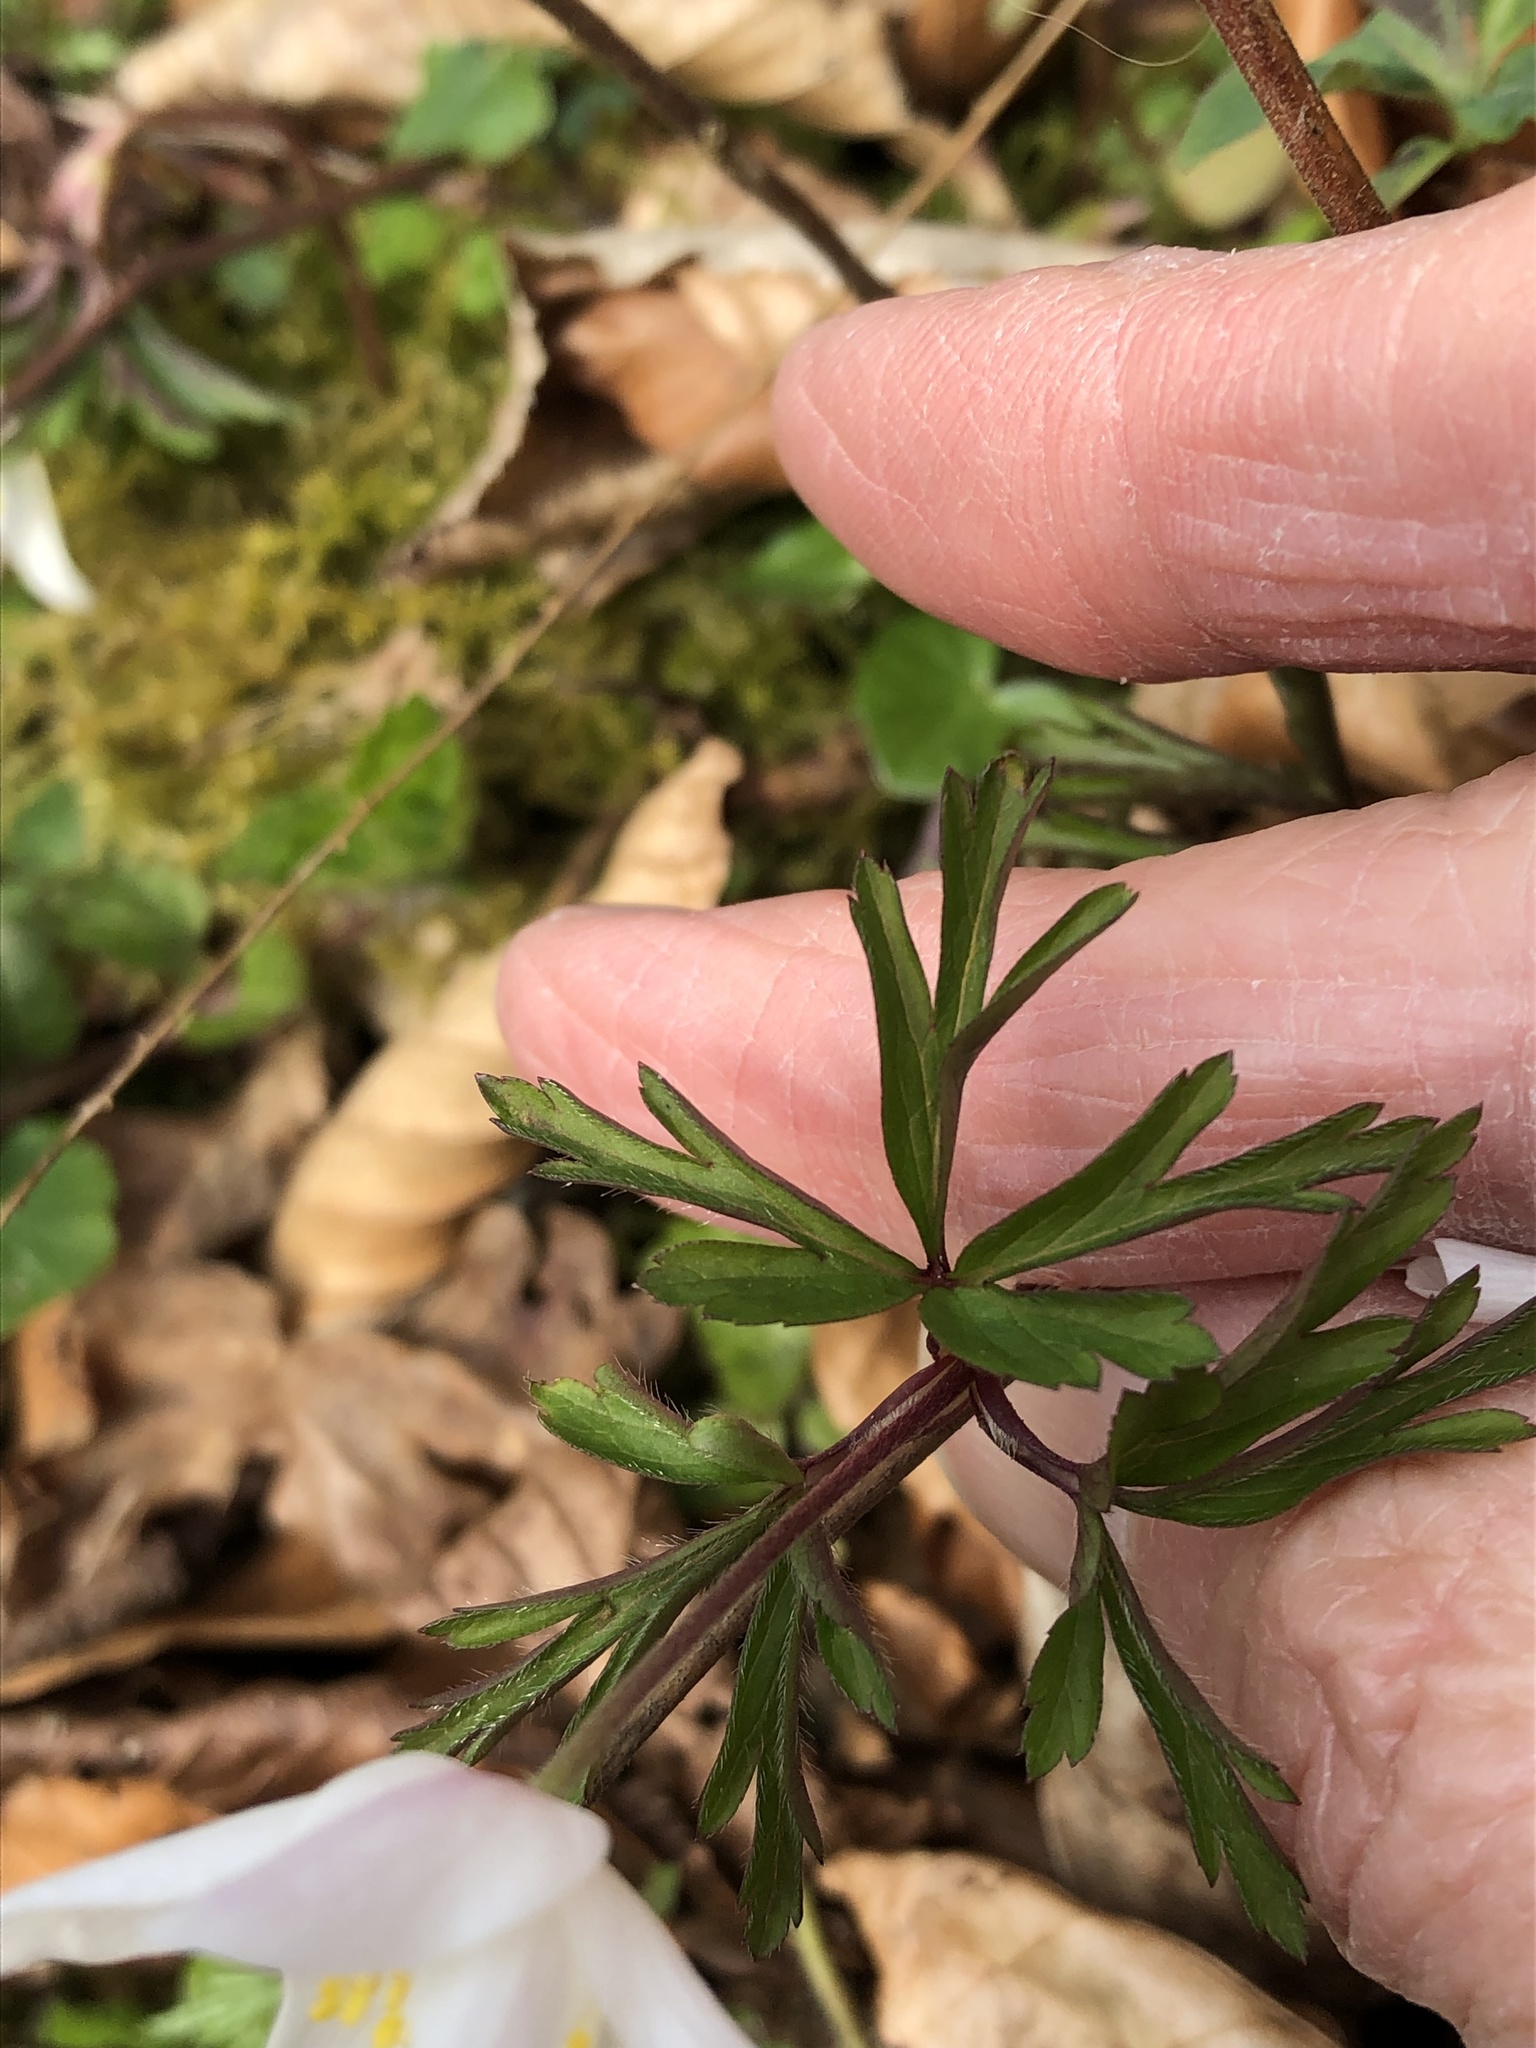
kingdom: Plantae
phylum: Tracheophyta
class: Magnoliopsida
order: Ranunculales
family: Ranunculaceae
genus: Anemone
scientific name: Anemone nemorosa
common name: Wood anemone
